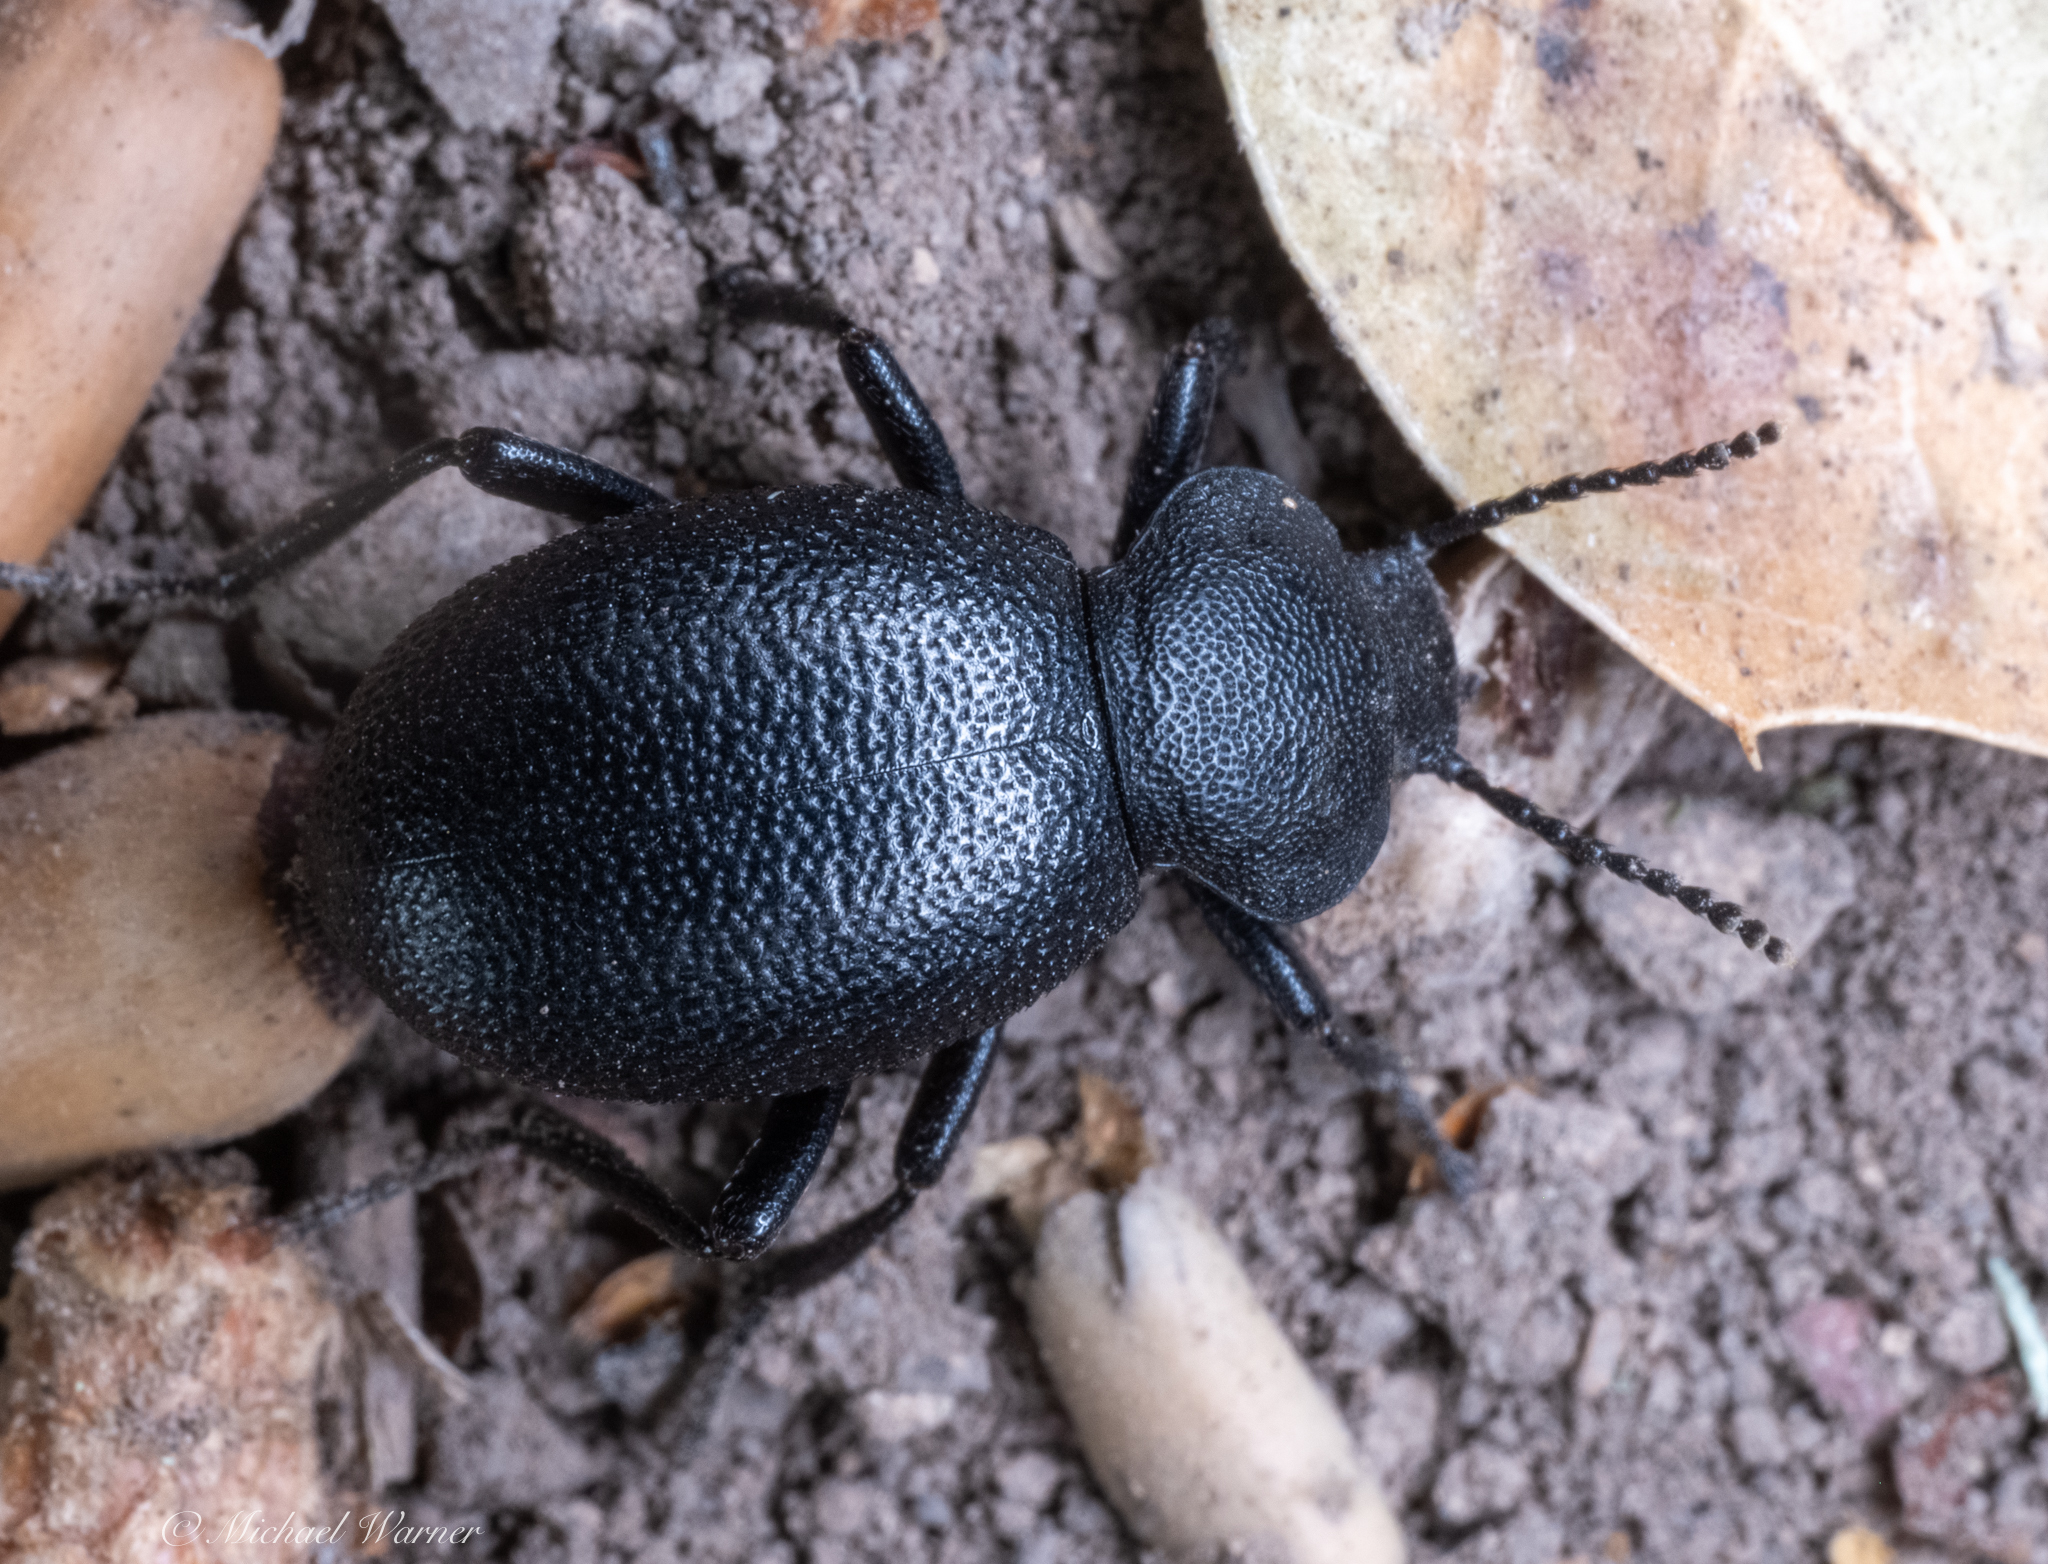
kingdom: Animalia
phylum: Arthropoda
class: Insecta
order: Coleoptera
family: Tenebrionidae
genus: Eleodes
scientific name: Eleodes cordata
